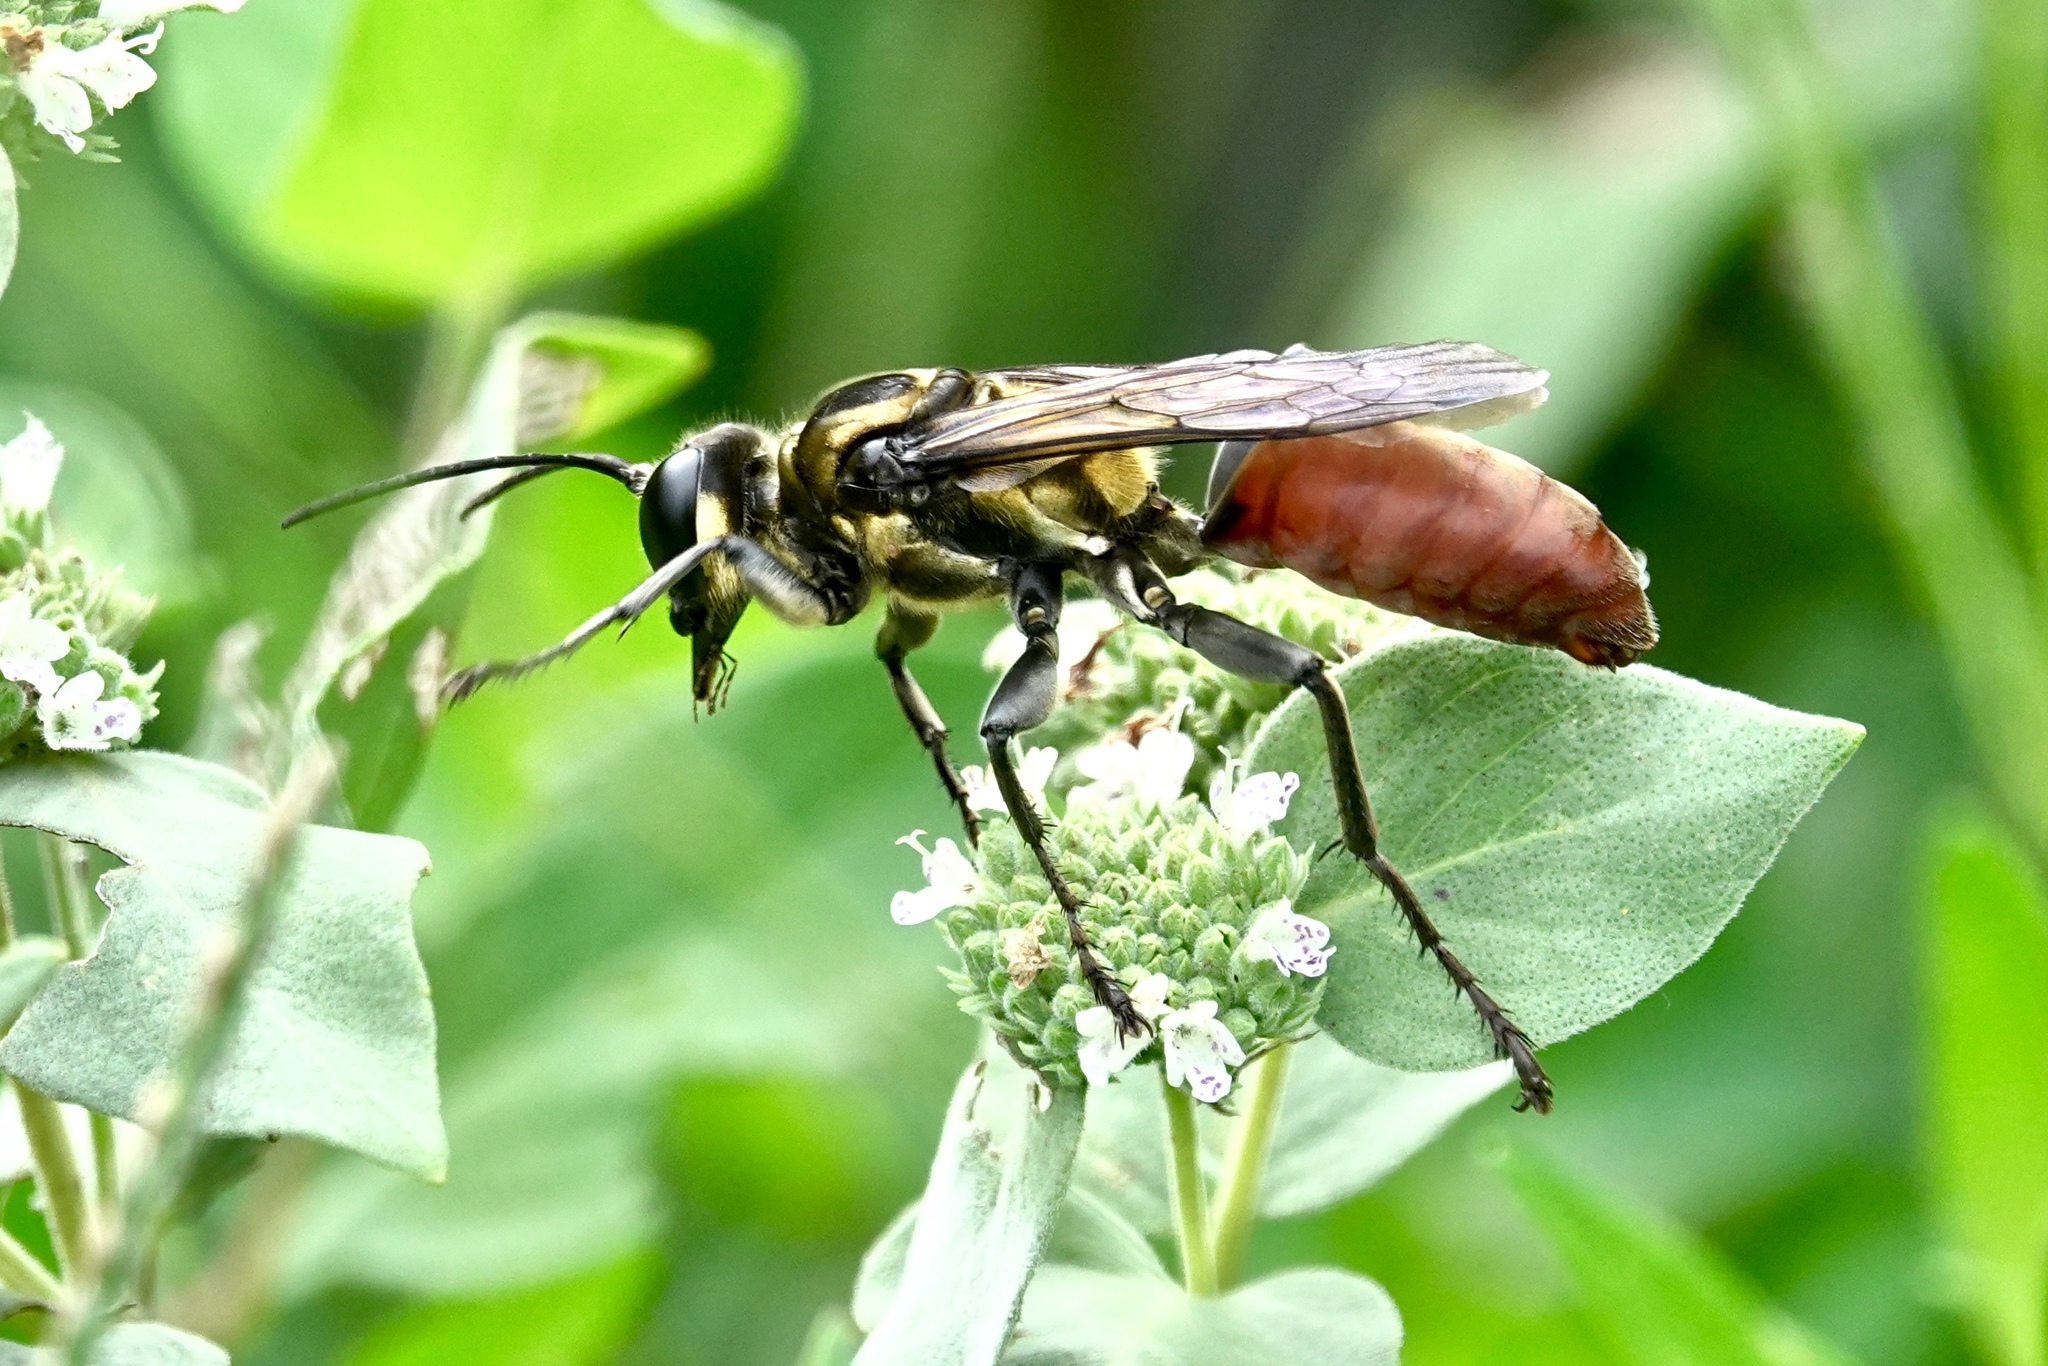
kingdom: Animalia
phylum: Arthropoda
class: Insecta
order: Hymenoptera
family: Sphecidae
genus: Sphex
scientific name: Sphex habenus
